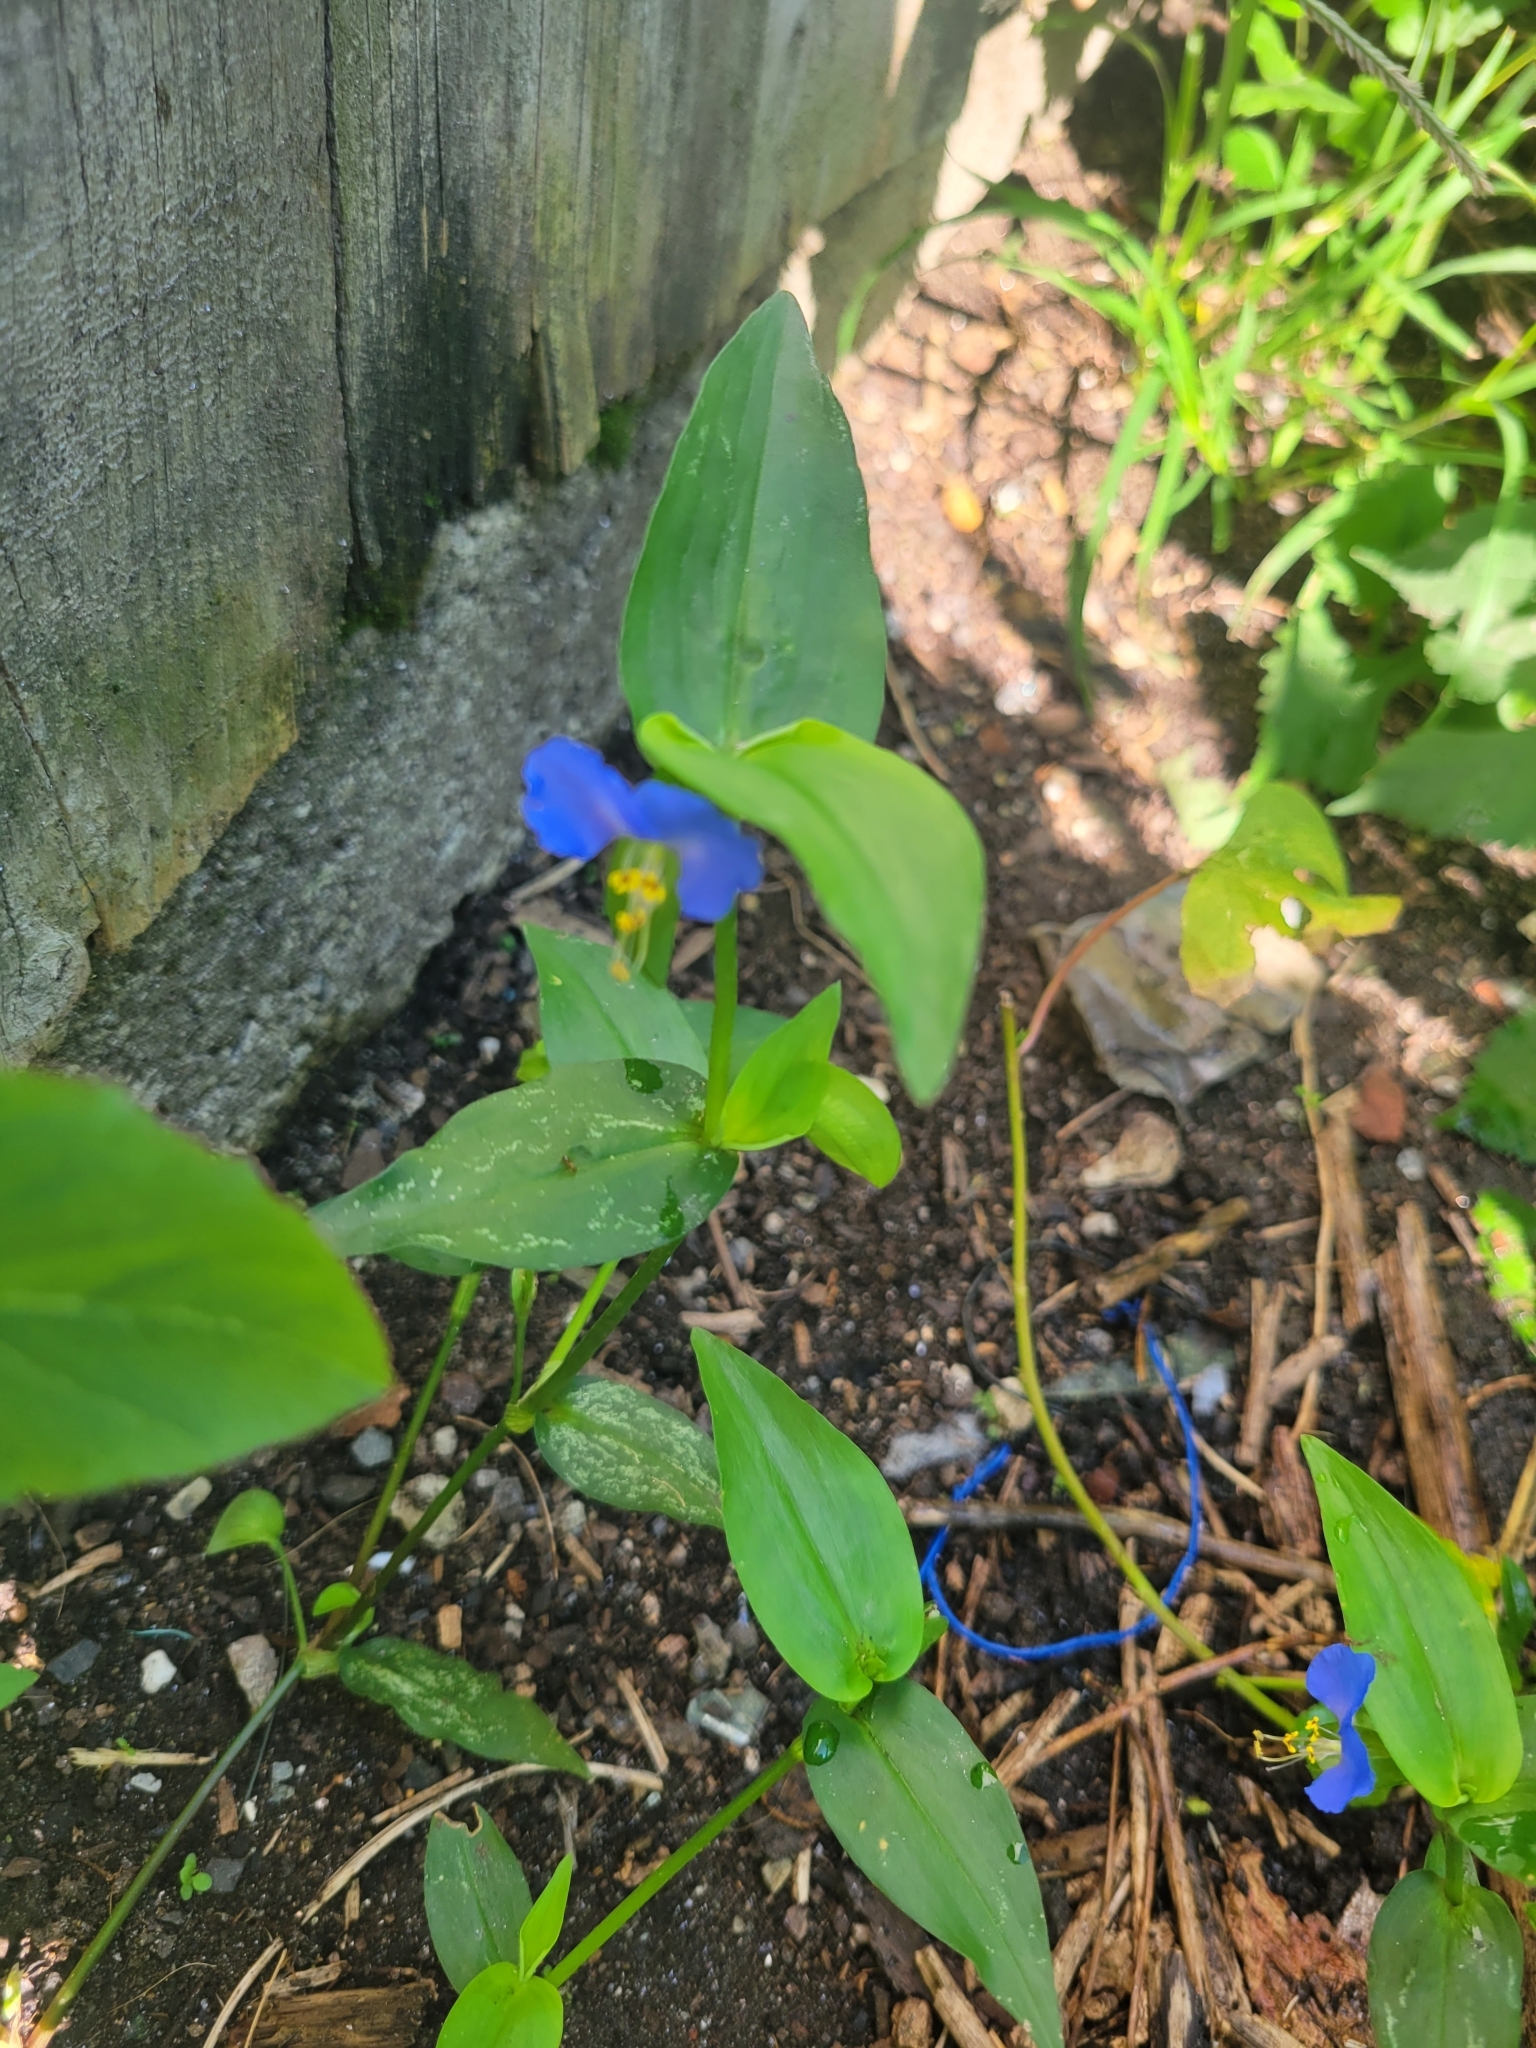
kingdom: Plantae
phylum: Tracheophyta
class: Liliopsida
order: Commelinales
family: Commelinaceae
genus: Commelina
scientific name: Commelina communis
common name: Asiatic dayflower
